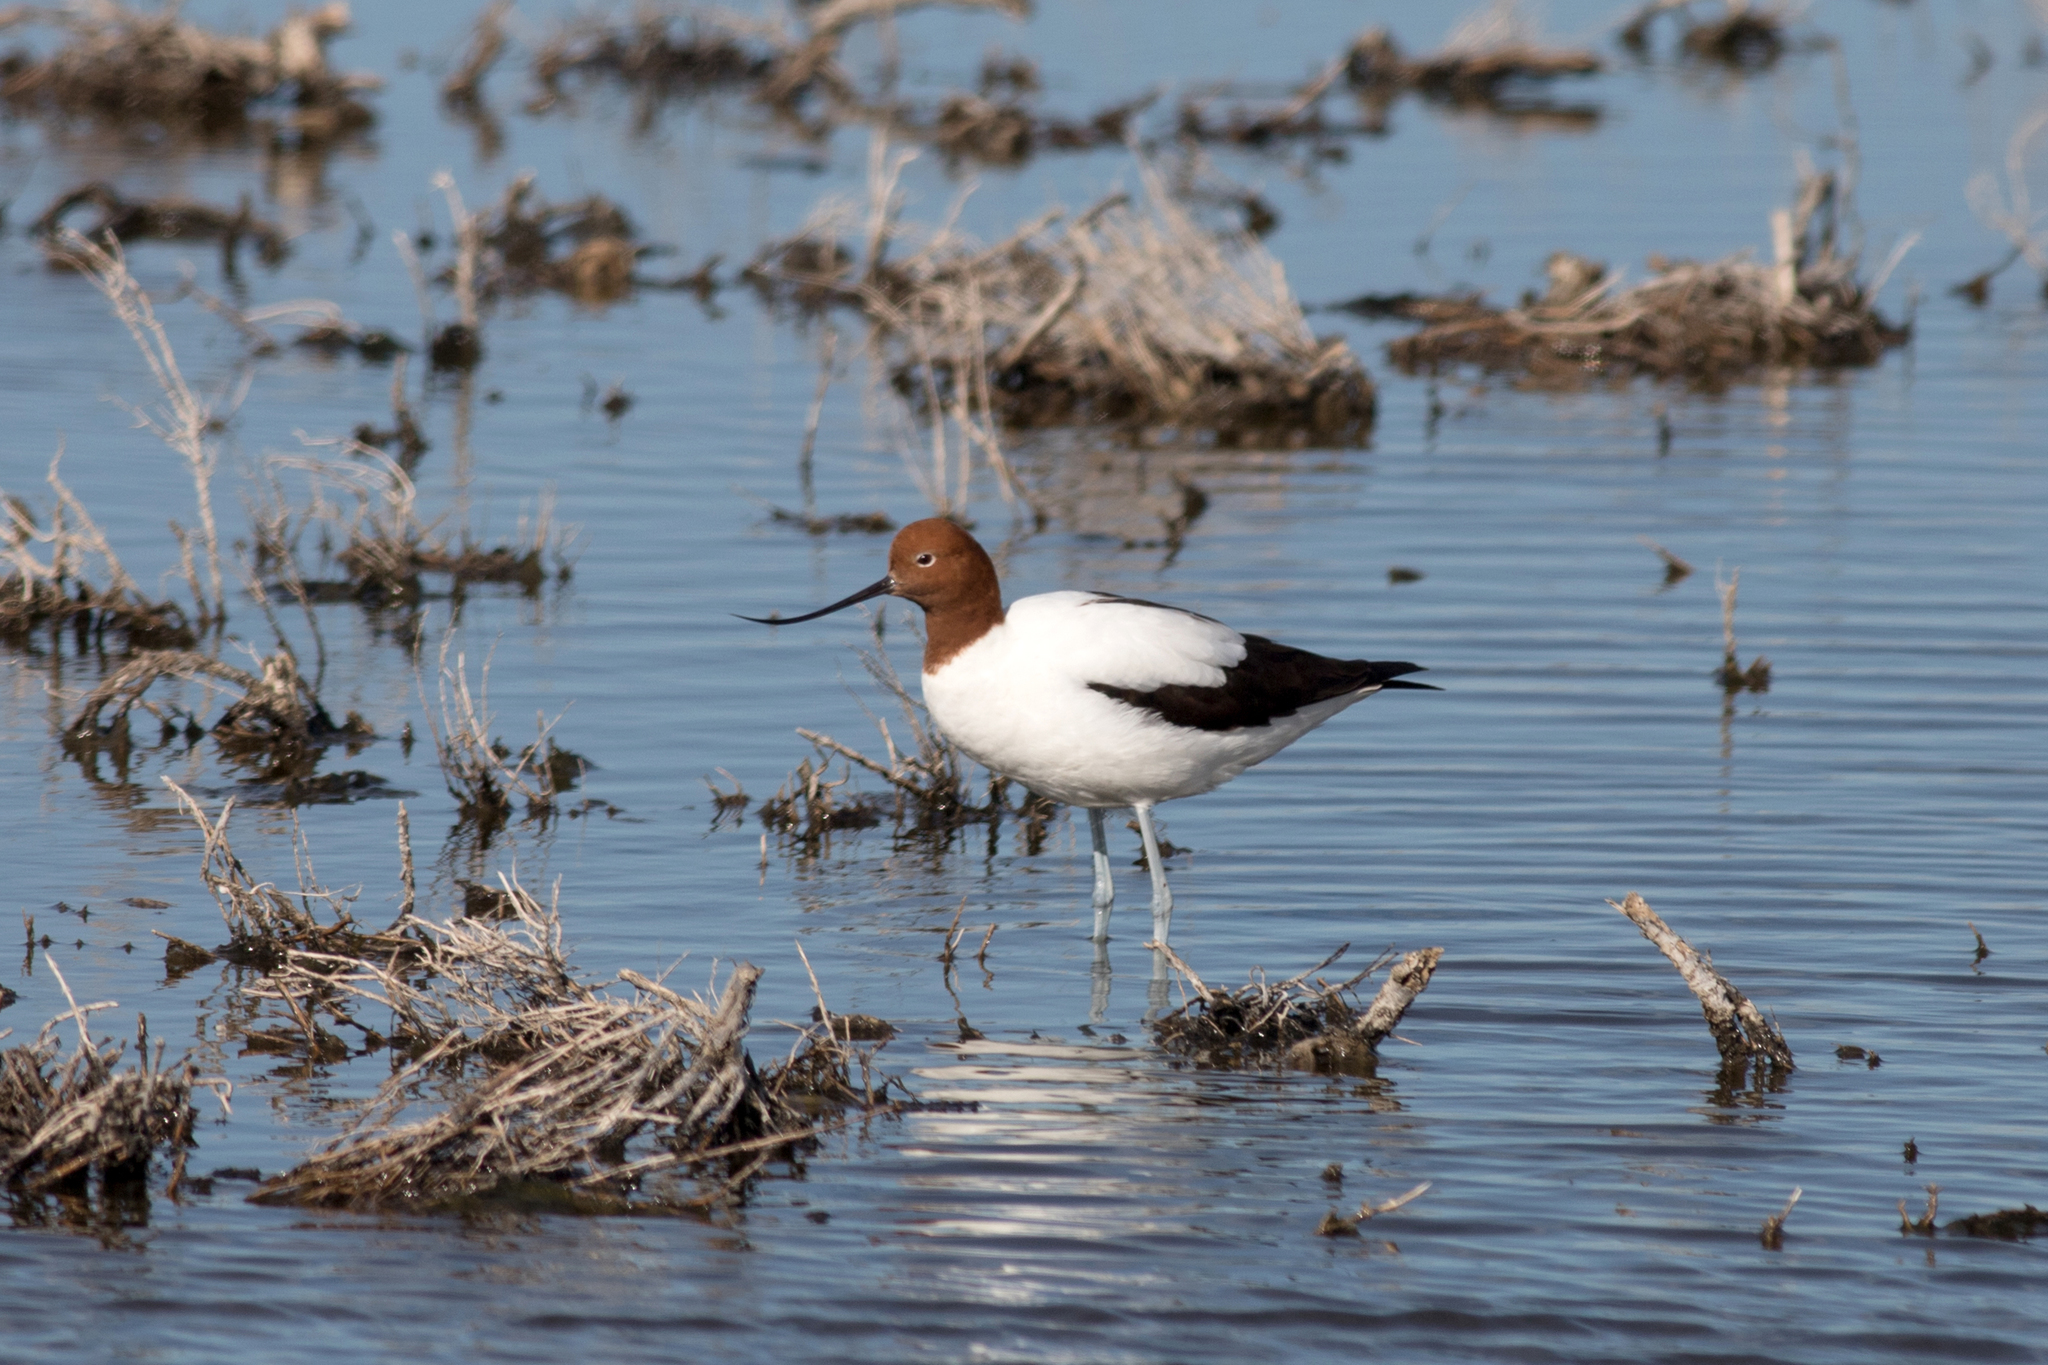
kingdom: Animalia
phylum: Chordata
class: Aves
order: Charadriiformes
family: Recurvirostridae
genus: Recurvirostra
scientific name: Recurvirostra novaehollandiae
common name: Red-necked avocet
